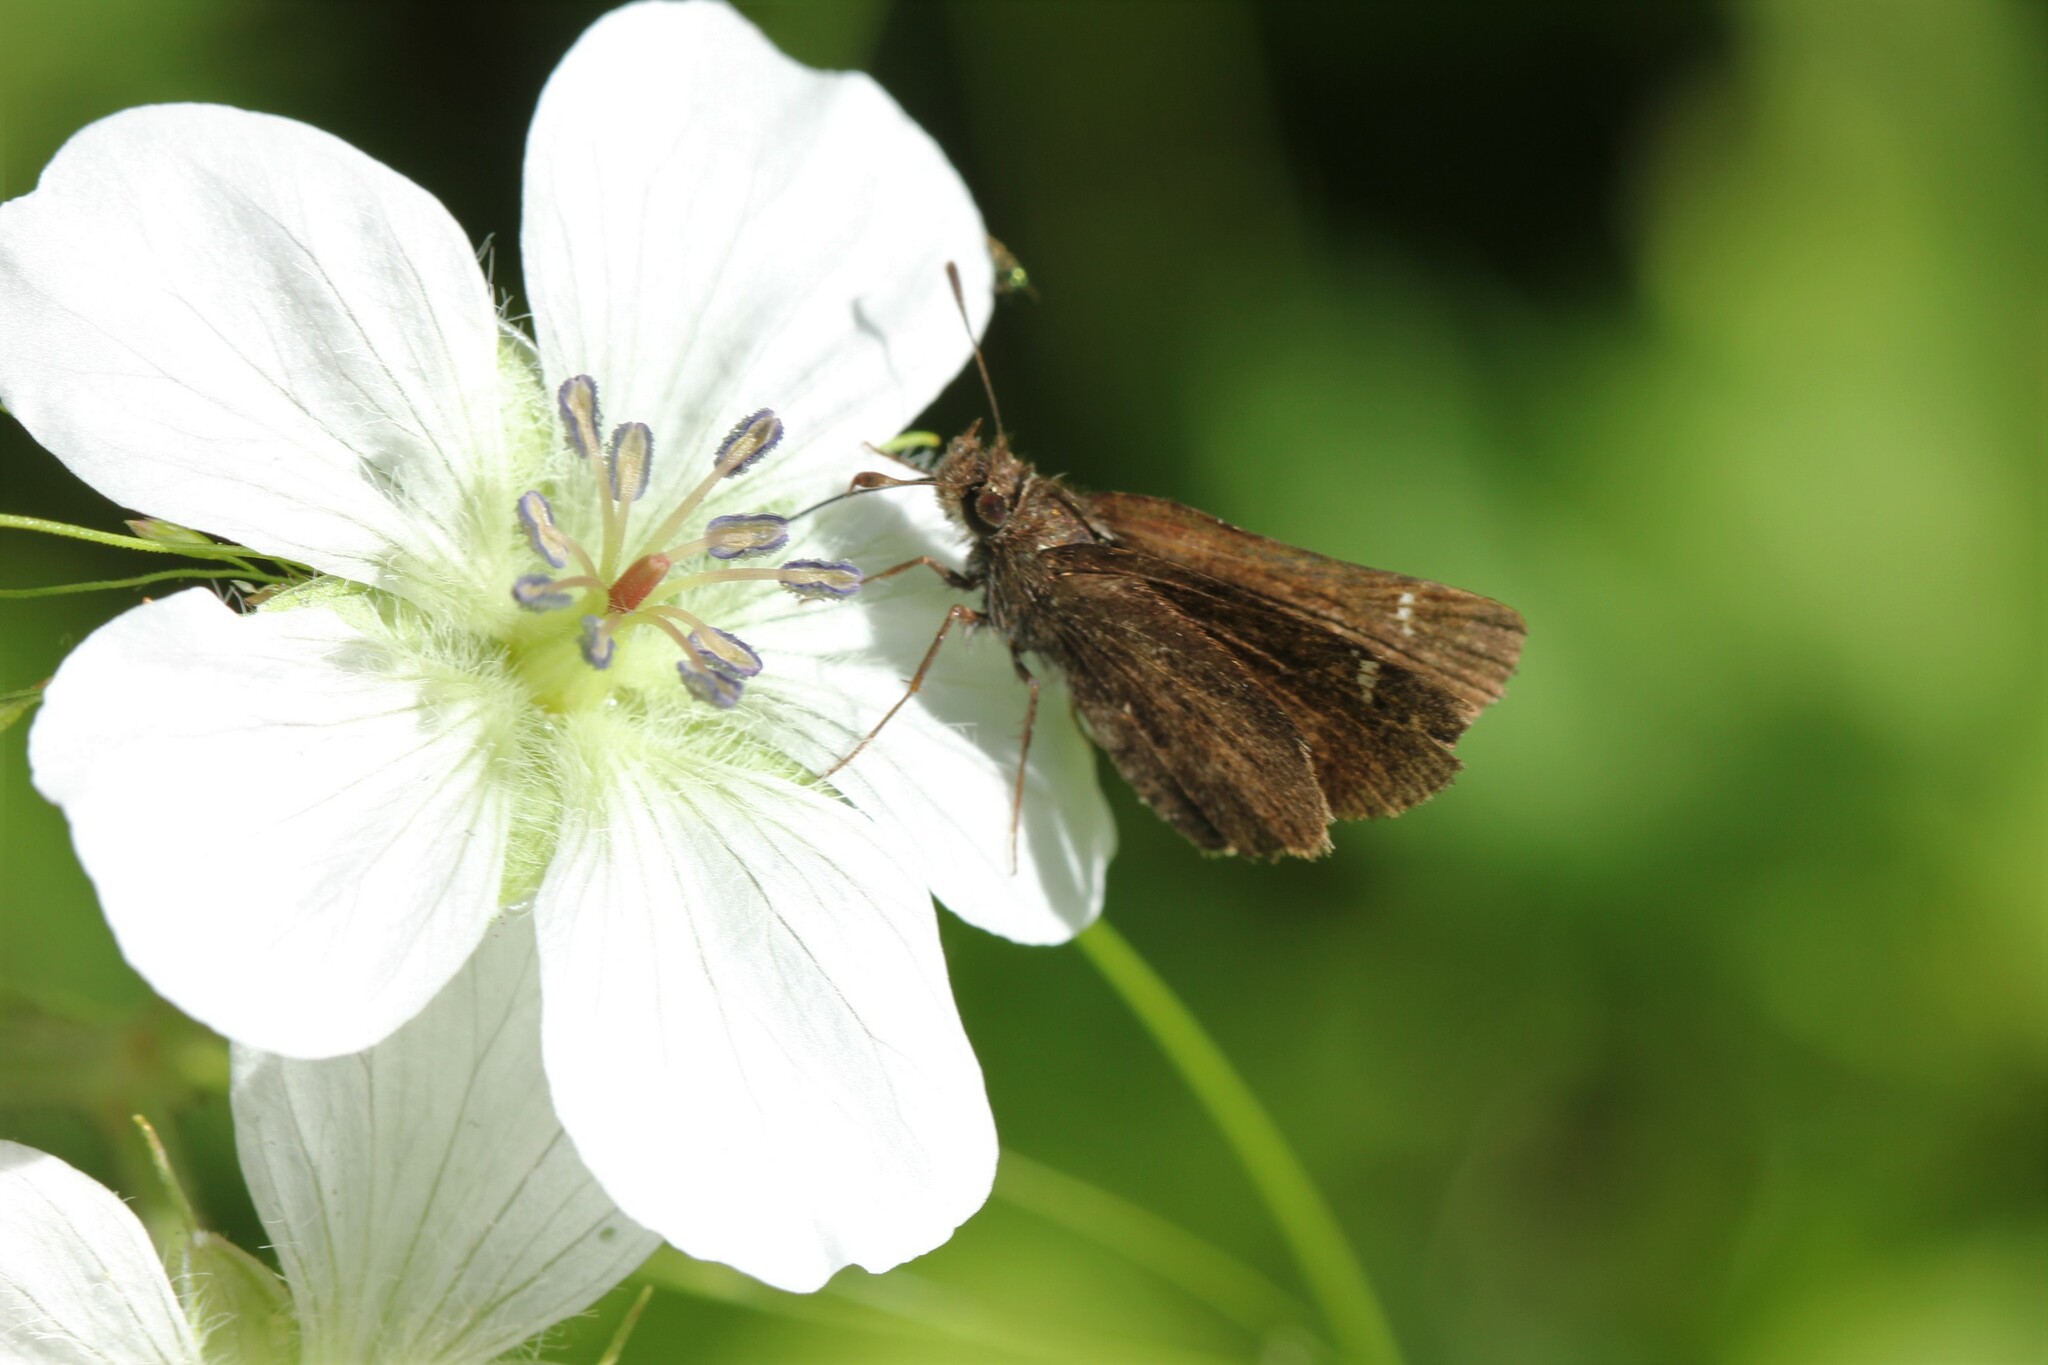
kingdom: Animalia
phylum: Arthropoda
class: Insecta
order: Lepidoptera
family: Hesperiidae
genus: Mastor
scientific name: Mastor vialis
